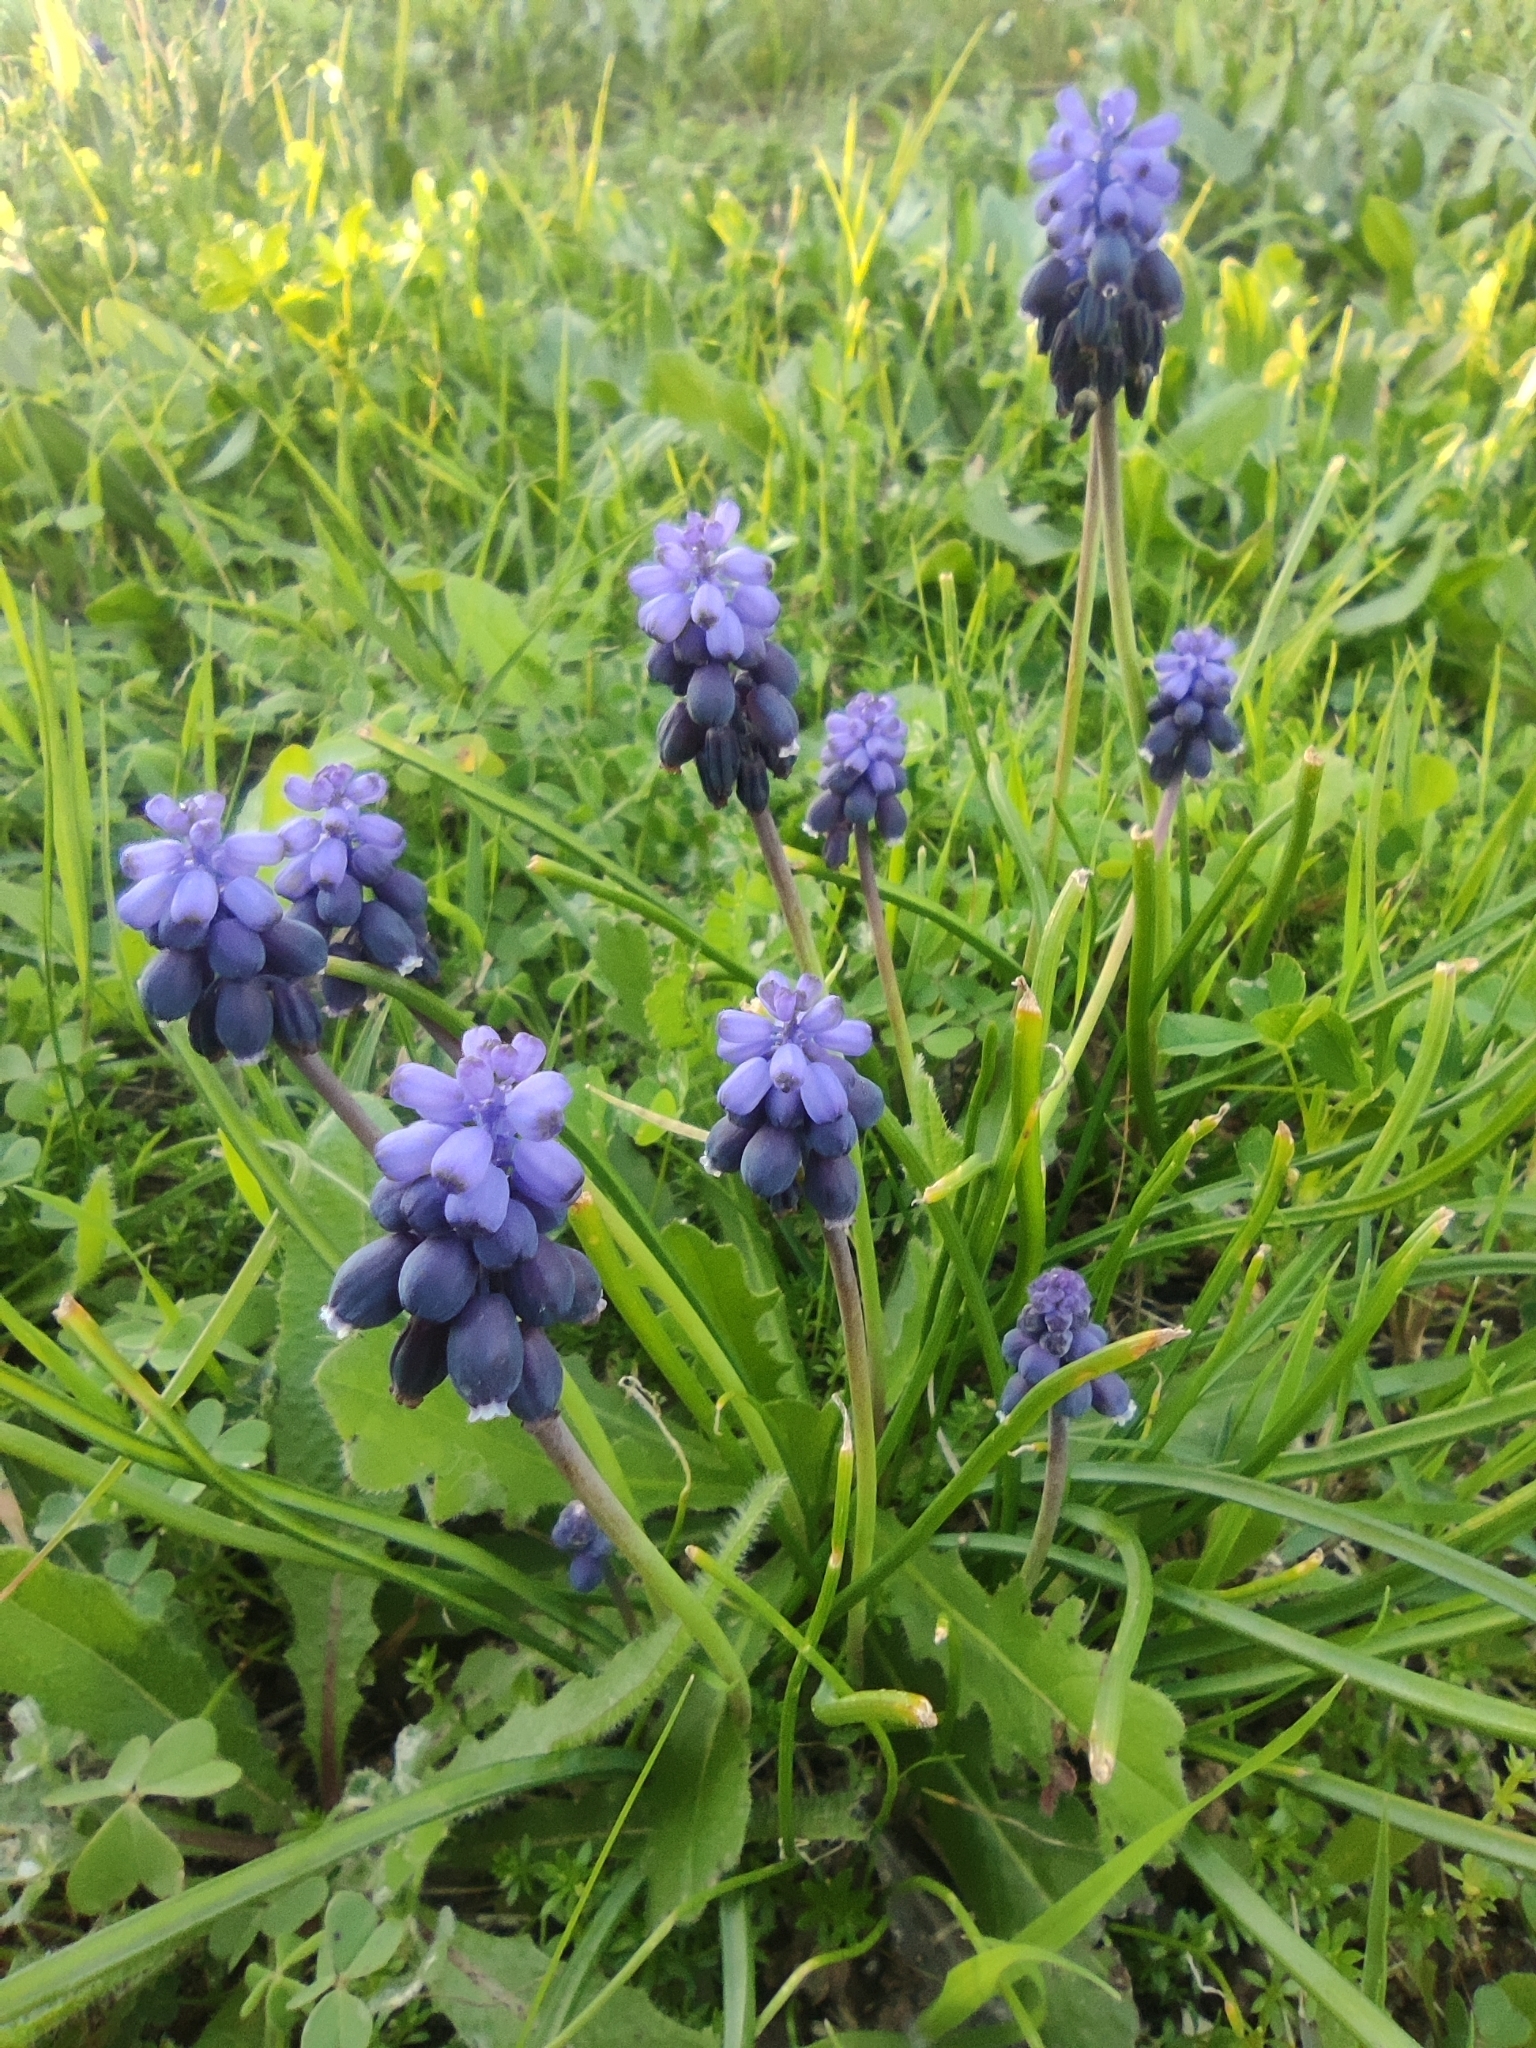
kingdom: Plantae
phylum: Tracheophyta
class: Liliopsida
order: Asparagales
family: Asparagaceae
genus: Muscari
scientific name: Muscari neglectum
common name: Grape-hyacinth
